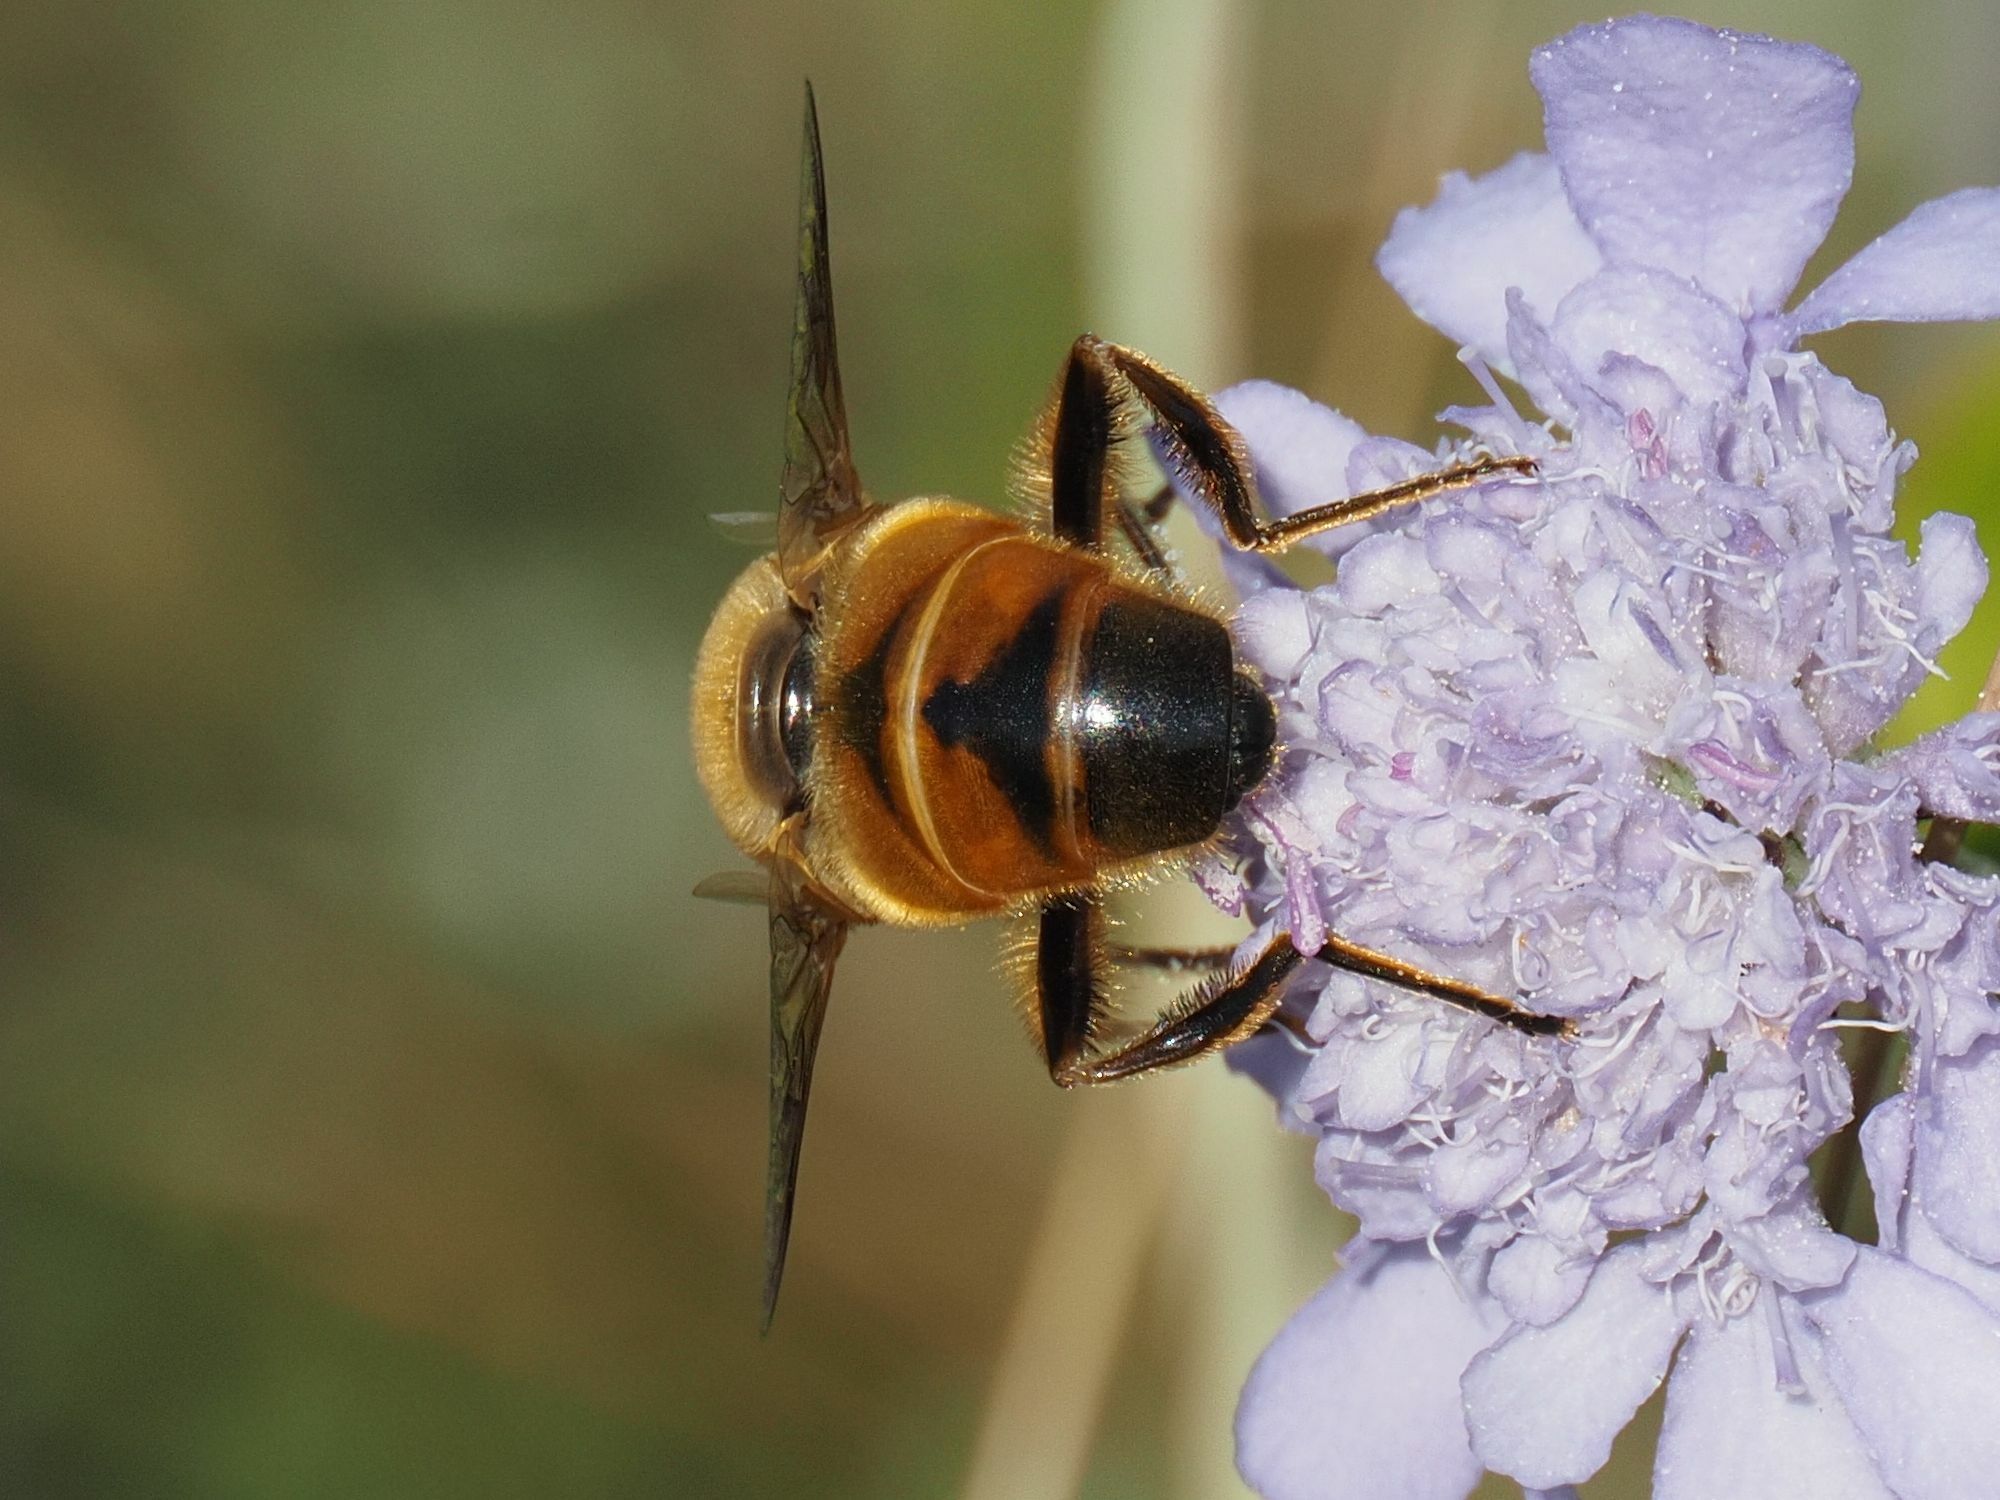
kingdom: Animalia
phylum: Arthropoda
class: Insecta
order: Diptera
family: Syrphidae
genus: Eristalis
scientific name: Eristalis tenax
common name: Drone fly
